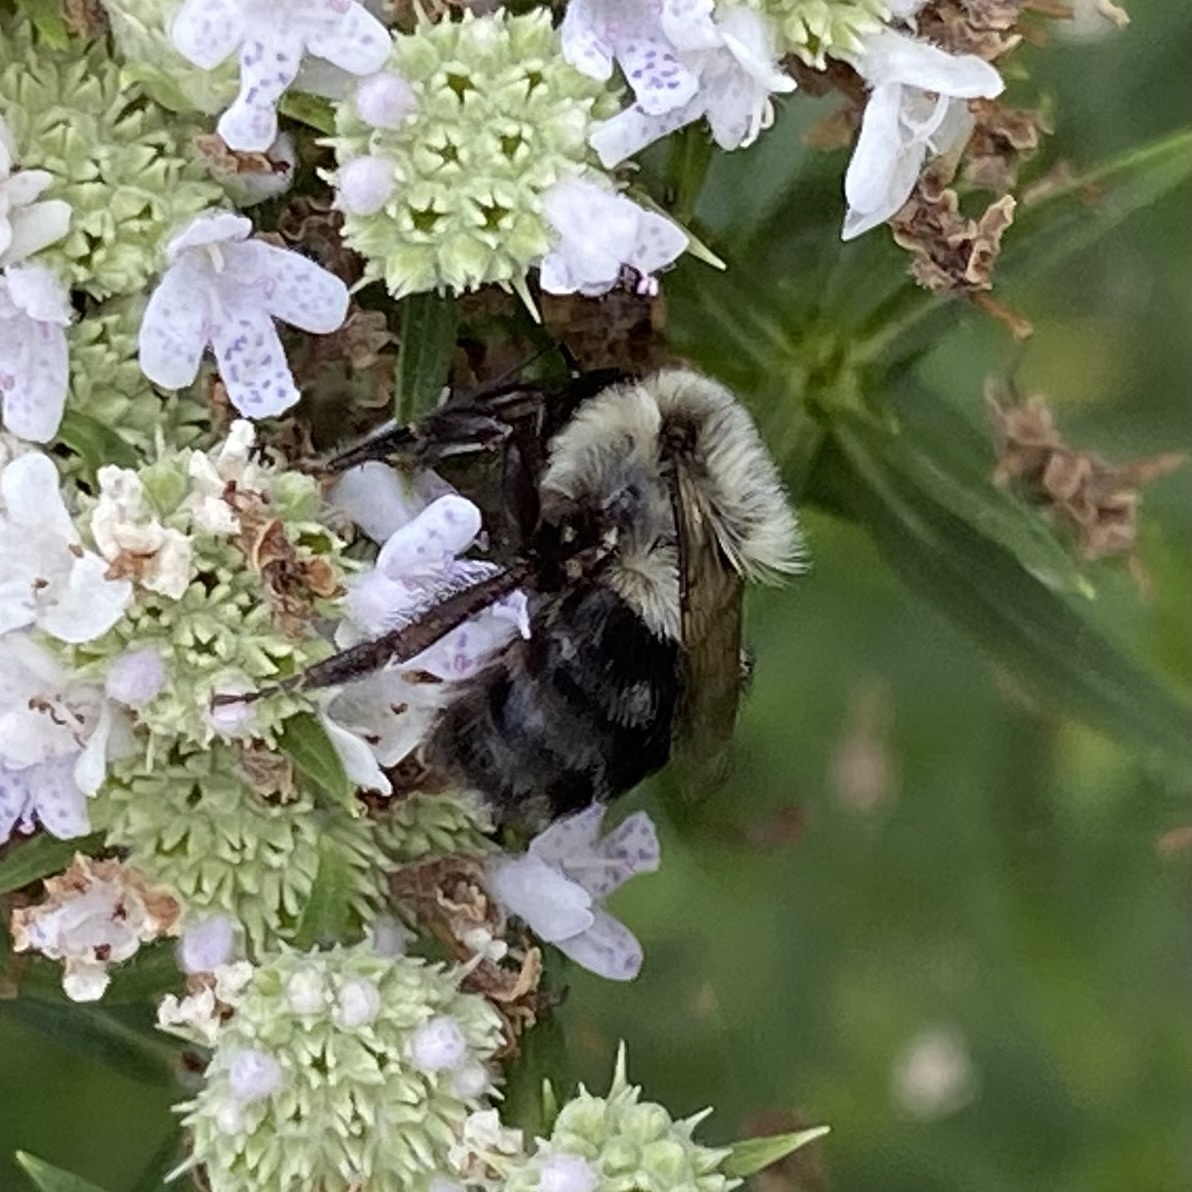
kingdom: Animalia
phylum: Arthropoda
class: Insecta
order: Hymenoptera
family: Apidae
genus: Bombus
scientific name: Bombus impatiens
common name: Common eastern bumble bee
